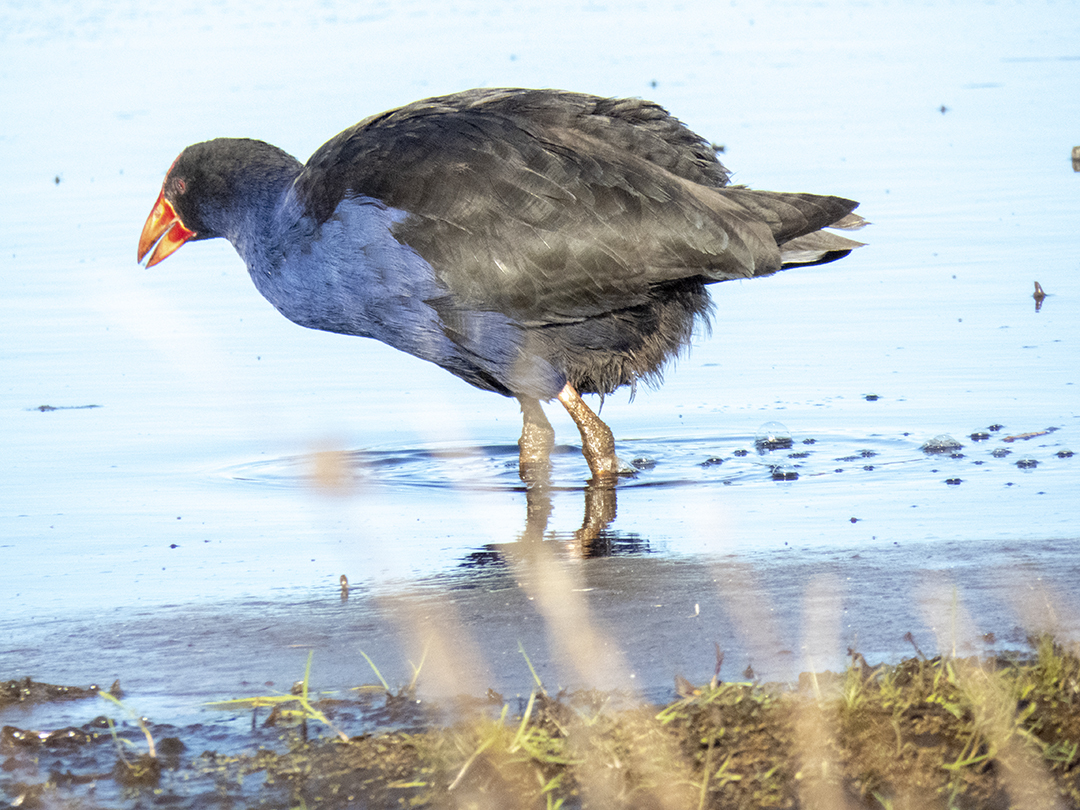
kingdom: Animalia
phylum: Chordata
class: Aves
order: Gruiformes
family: Rallidae
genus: Porphyrio
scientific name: Porphyrio melanotus
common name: Australasian swamphen
